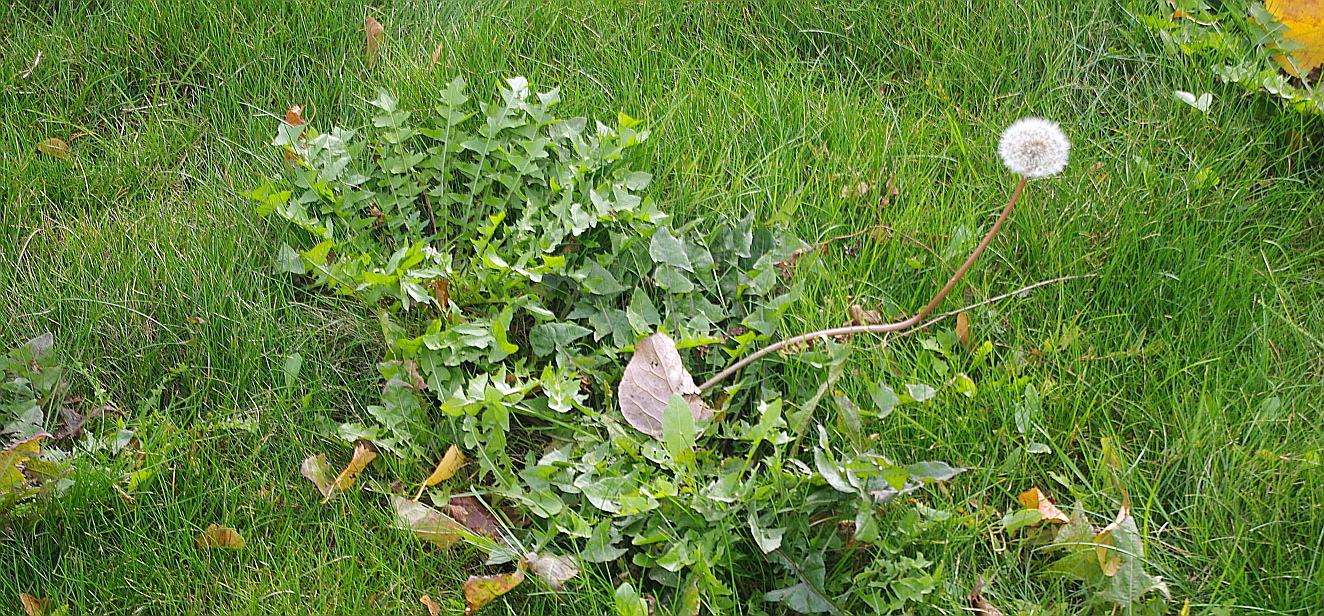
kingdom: Plantae
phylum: Tracheophyta
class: Magnoliopsida
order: Asterales
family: Asteraceae
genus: Taraxacum
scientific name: Taraxacum officinale
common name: Common dandelion
